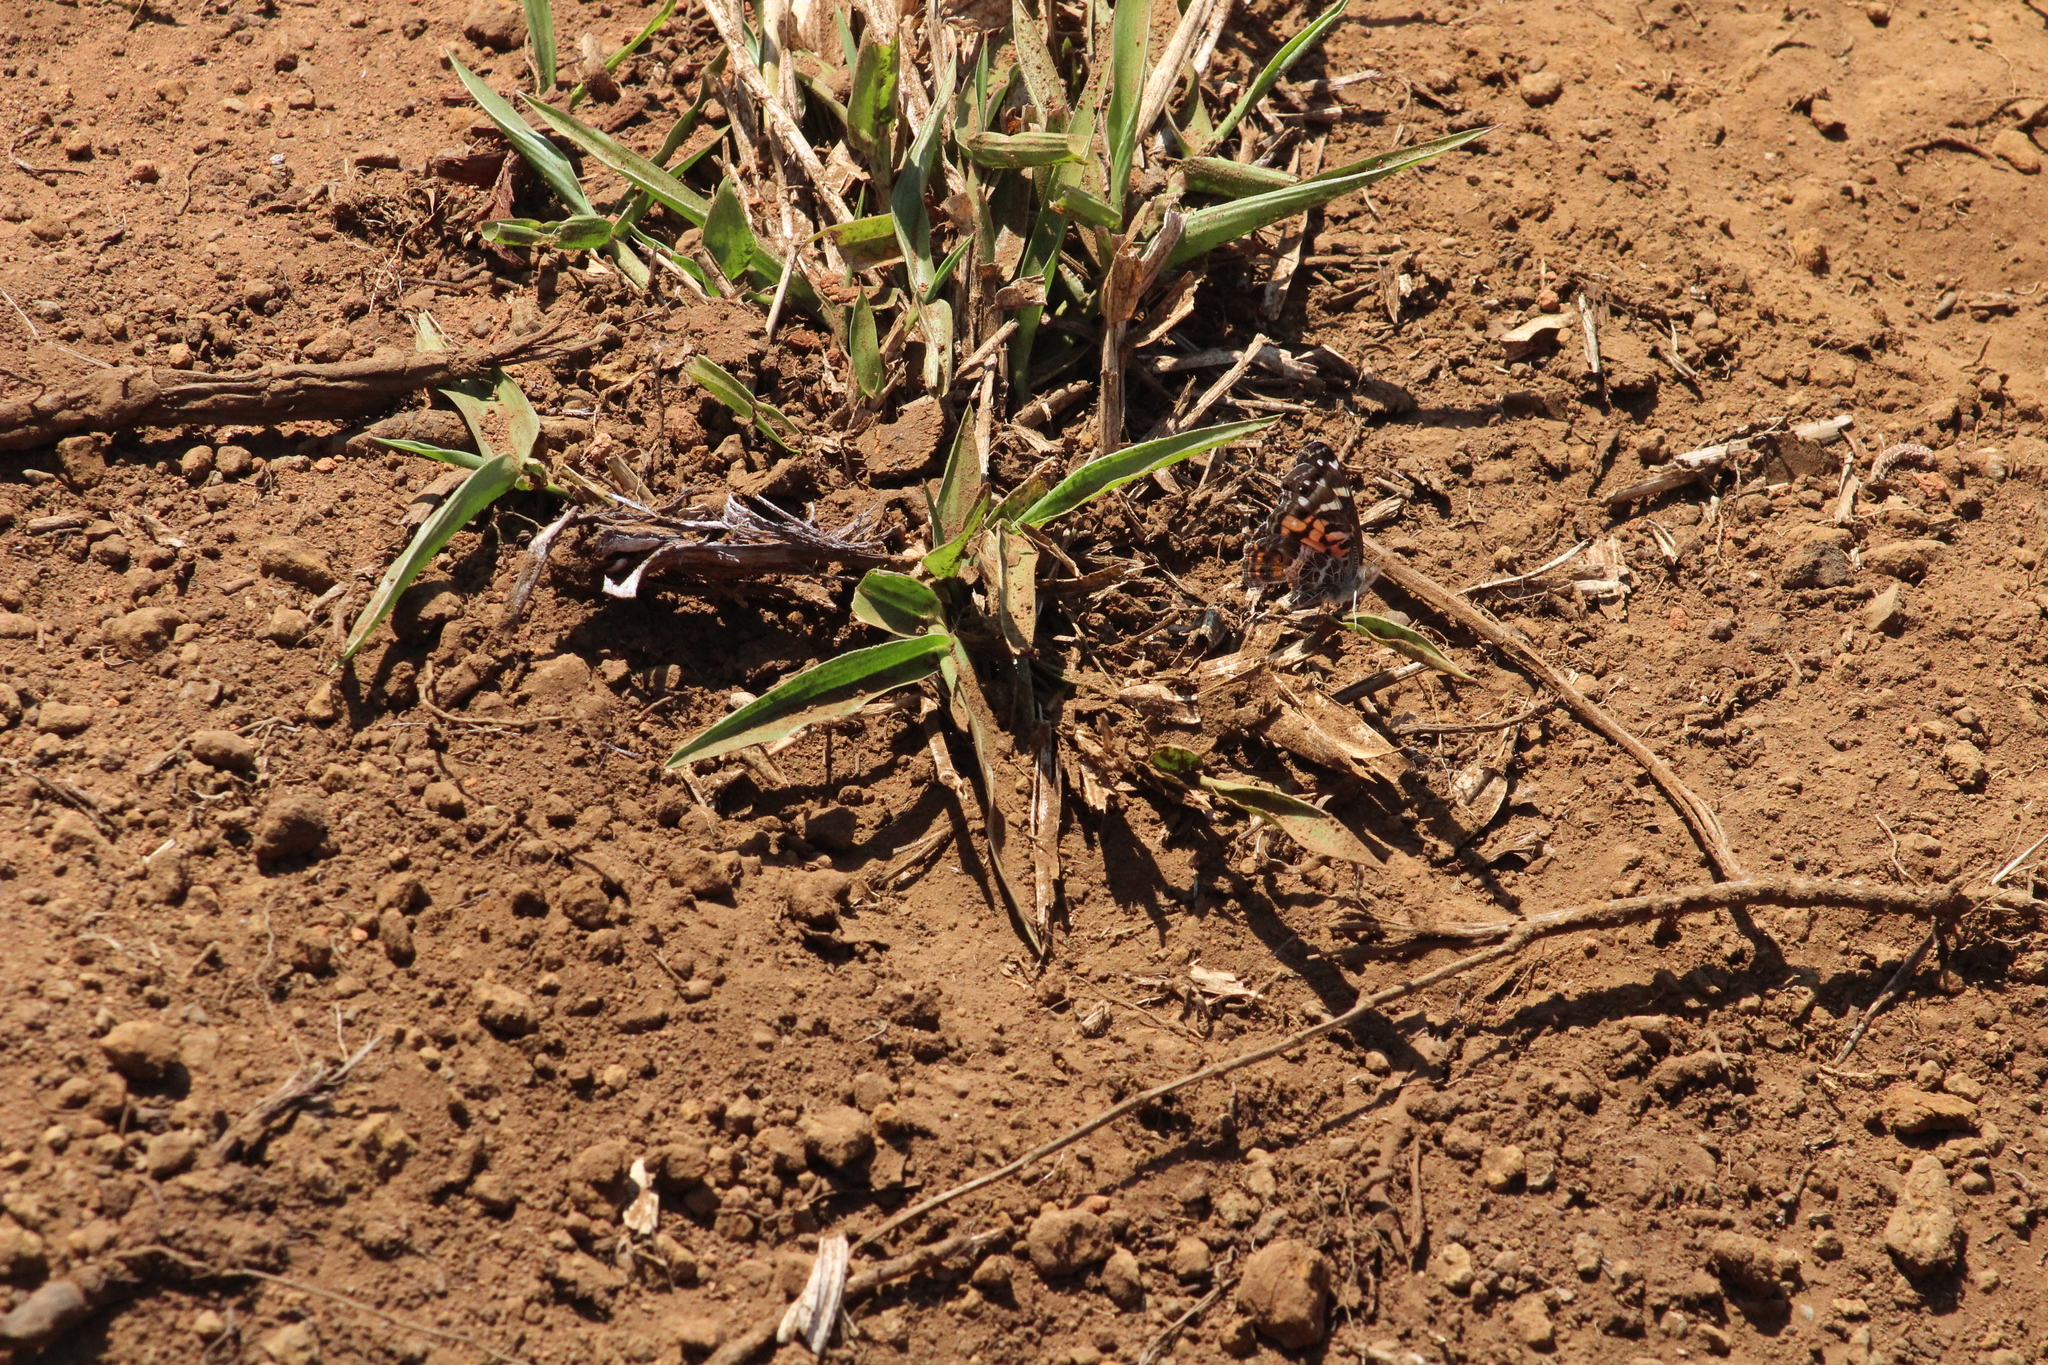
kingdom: Animalia
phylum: Arthropoda
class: Insecta
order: Lepidoptera
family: Nymphalidae
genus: Vanessa
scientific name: Vanessa virginiensis
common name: American lady
